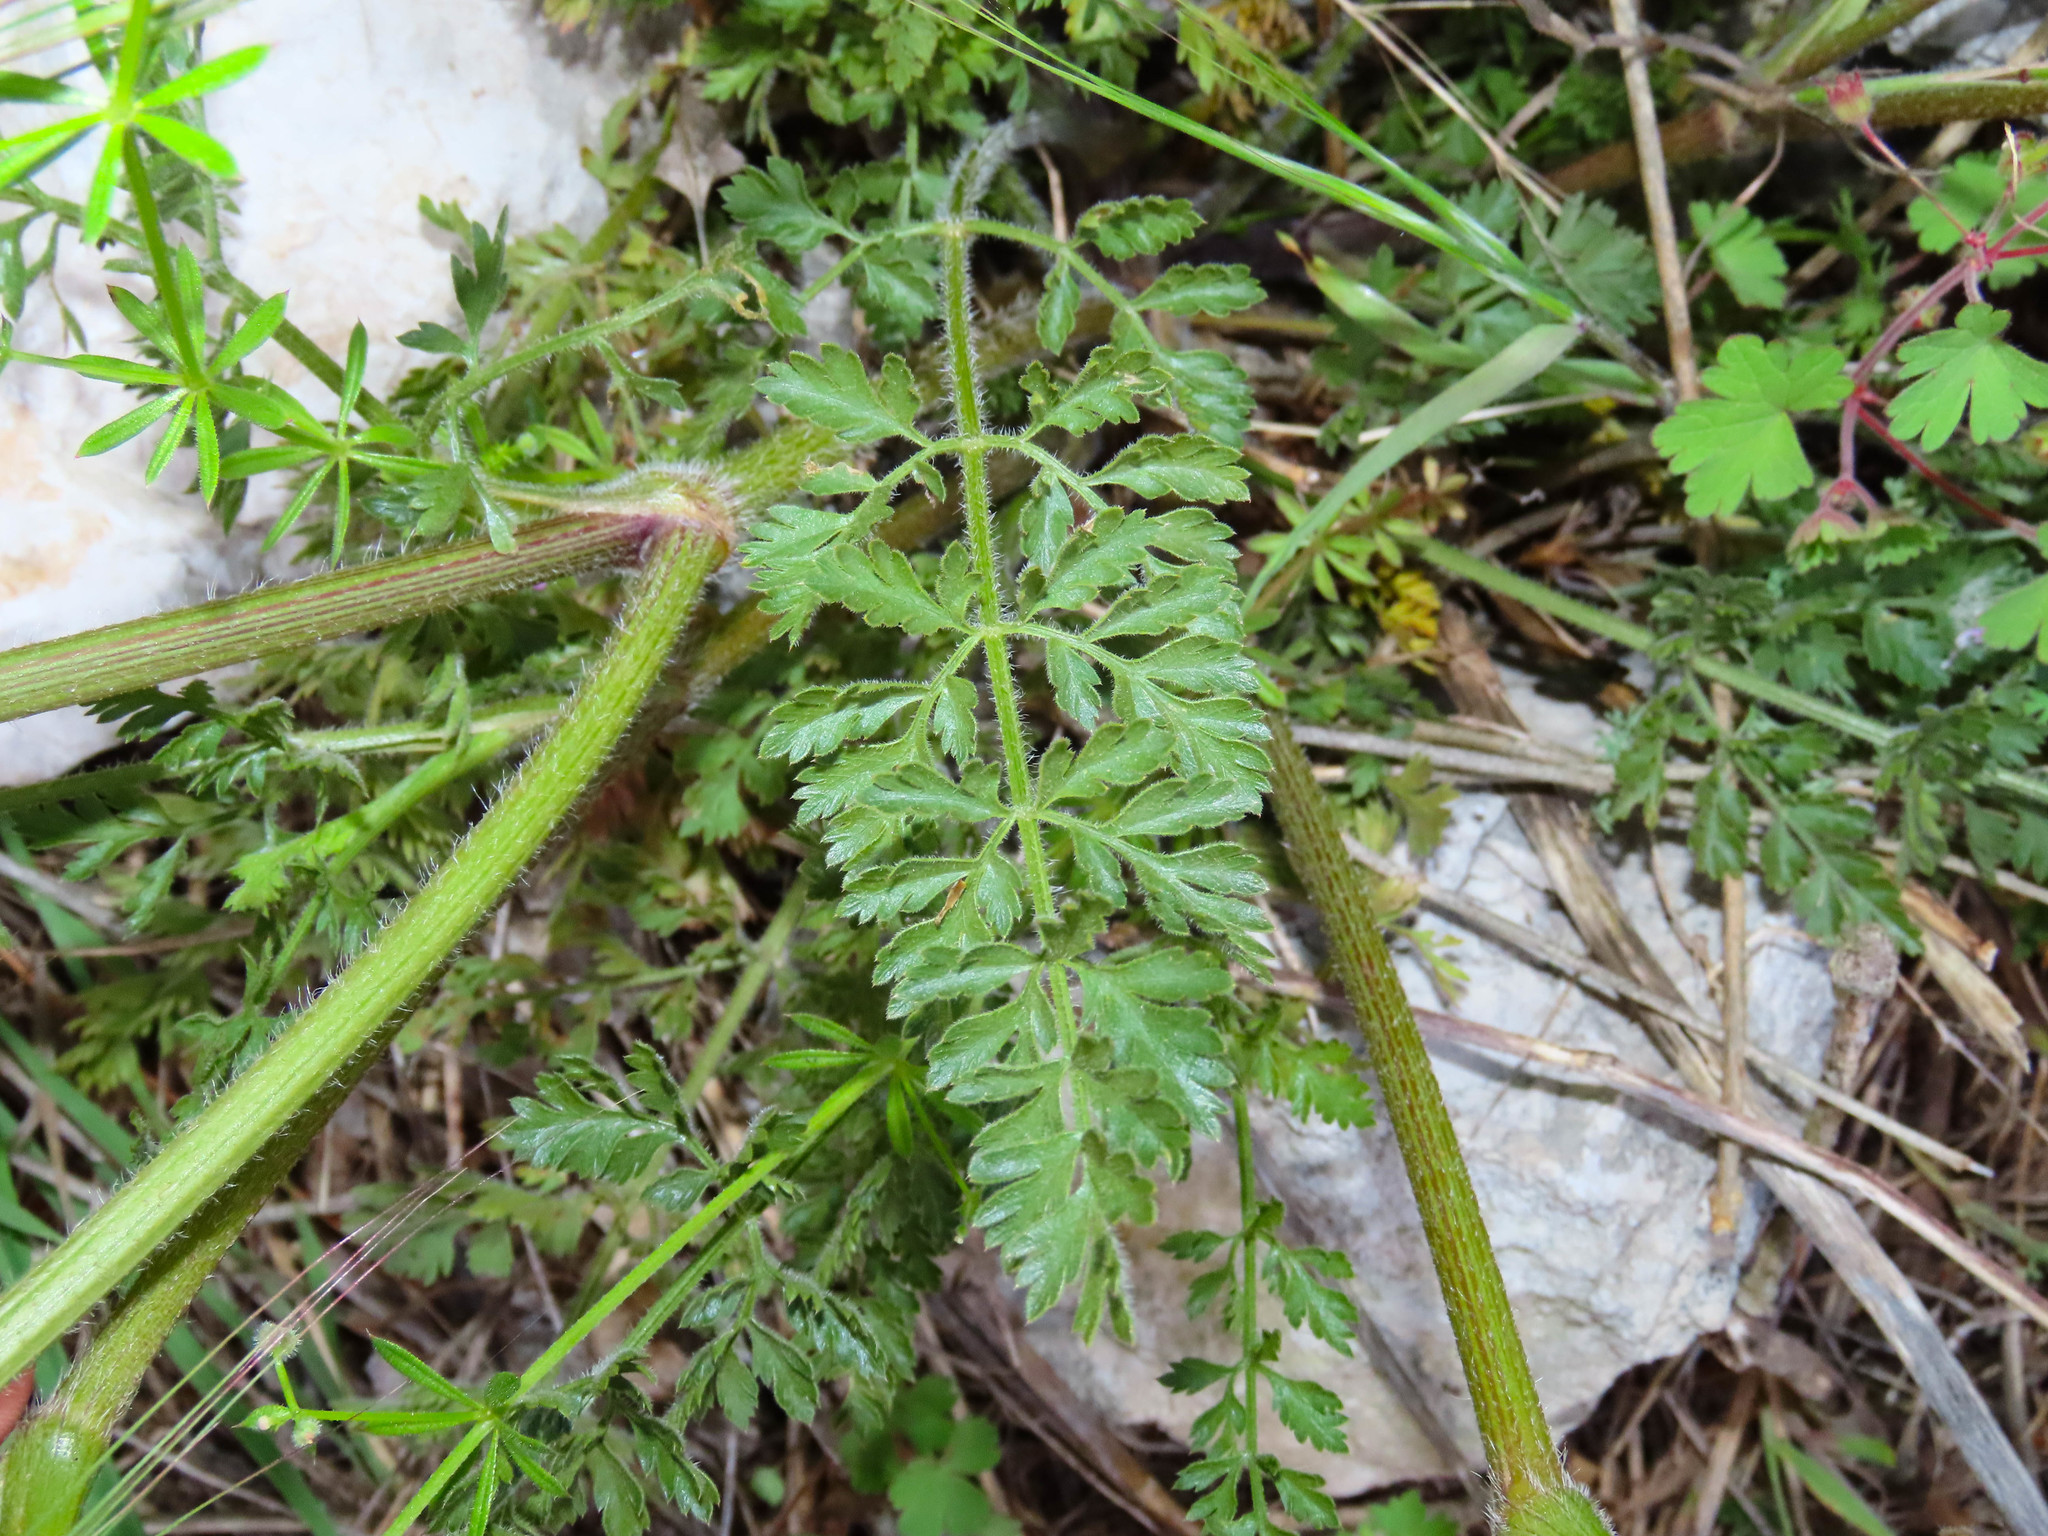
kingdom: Plantae
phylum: Tracheophyta
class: Magnoliopsida
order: Apiales
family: Apiaceae
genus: Daucus
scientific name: Daucus carota
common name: Wild carrot
